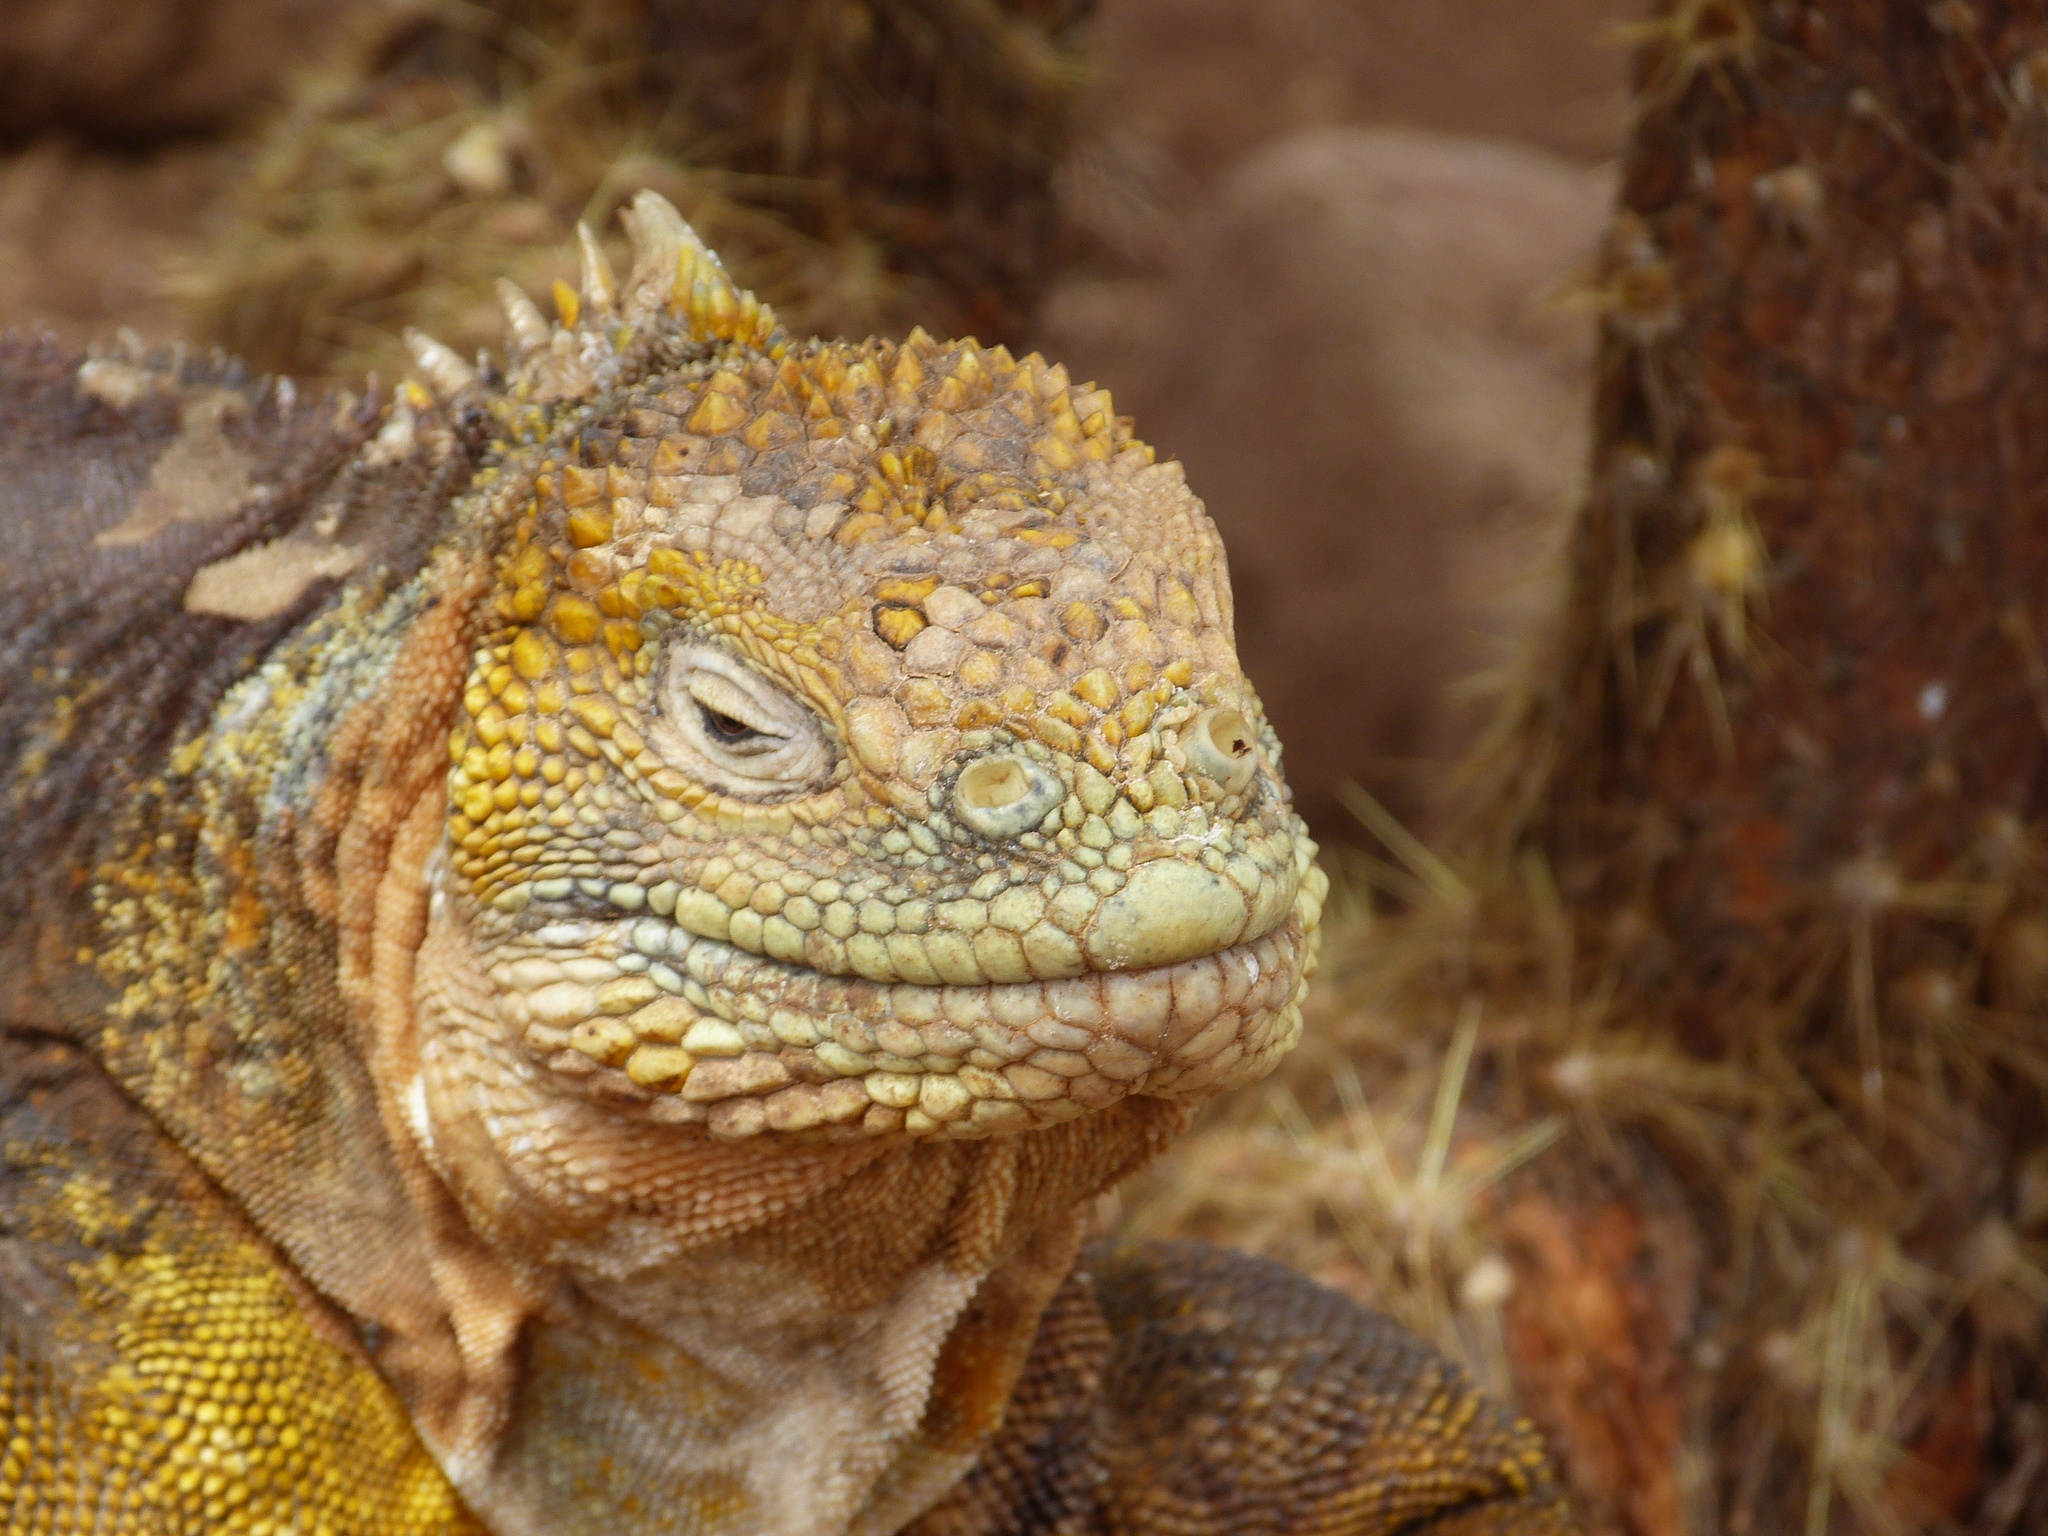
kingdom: Animalia
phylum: Chordata
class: Squamata
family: Iguanidae
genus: Conolophus
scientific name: Conolophus subcristatus
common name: Galapagos land iguana
